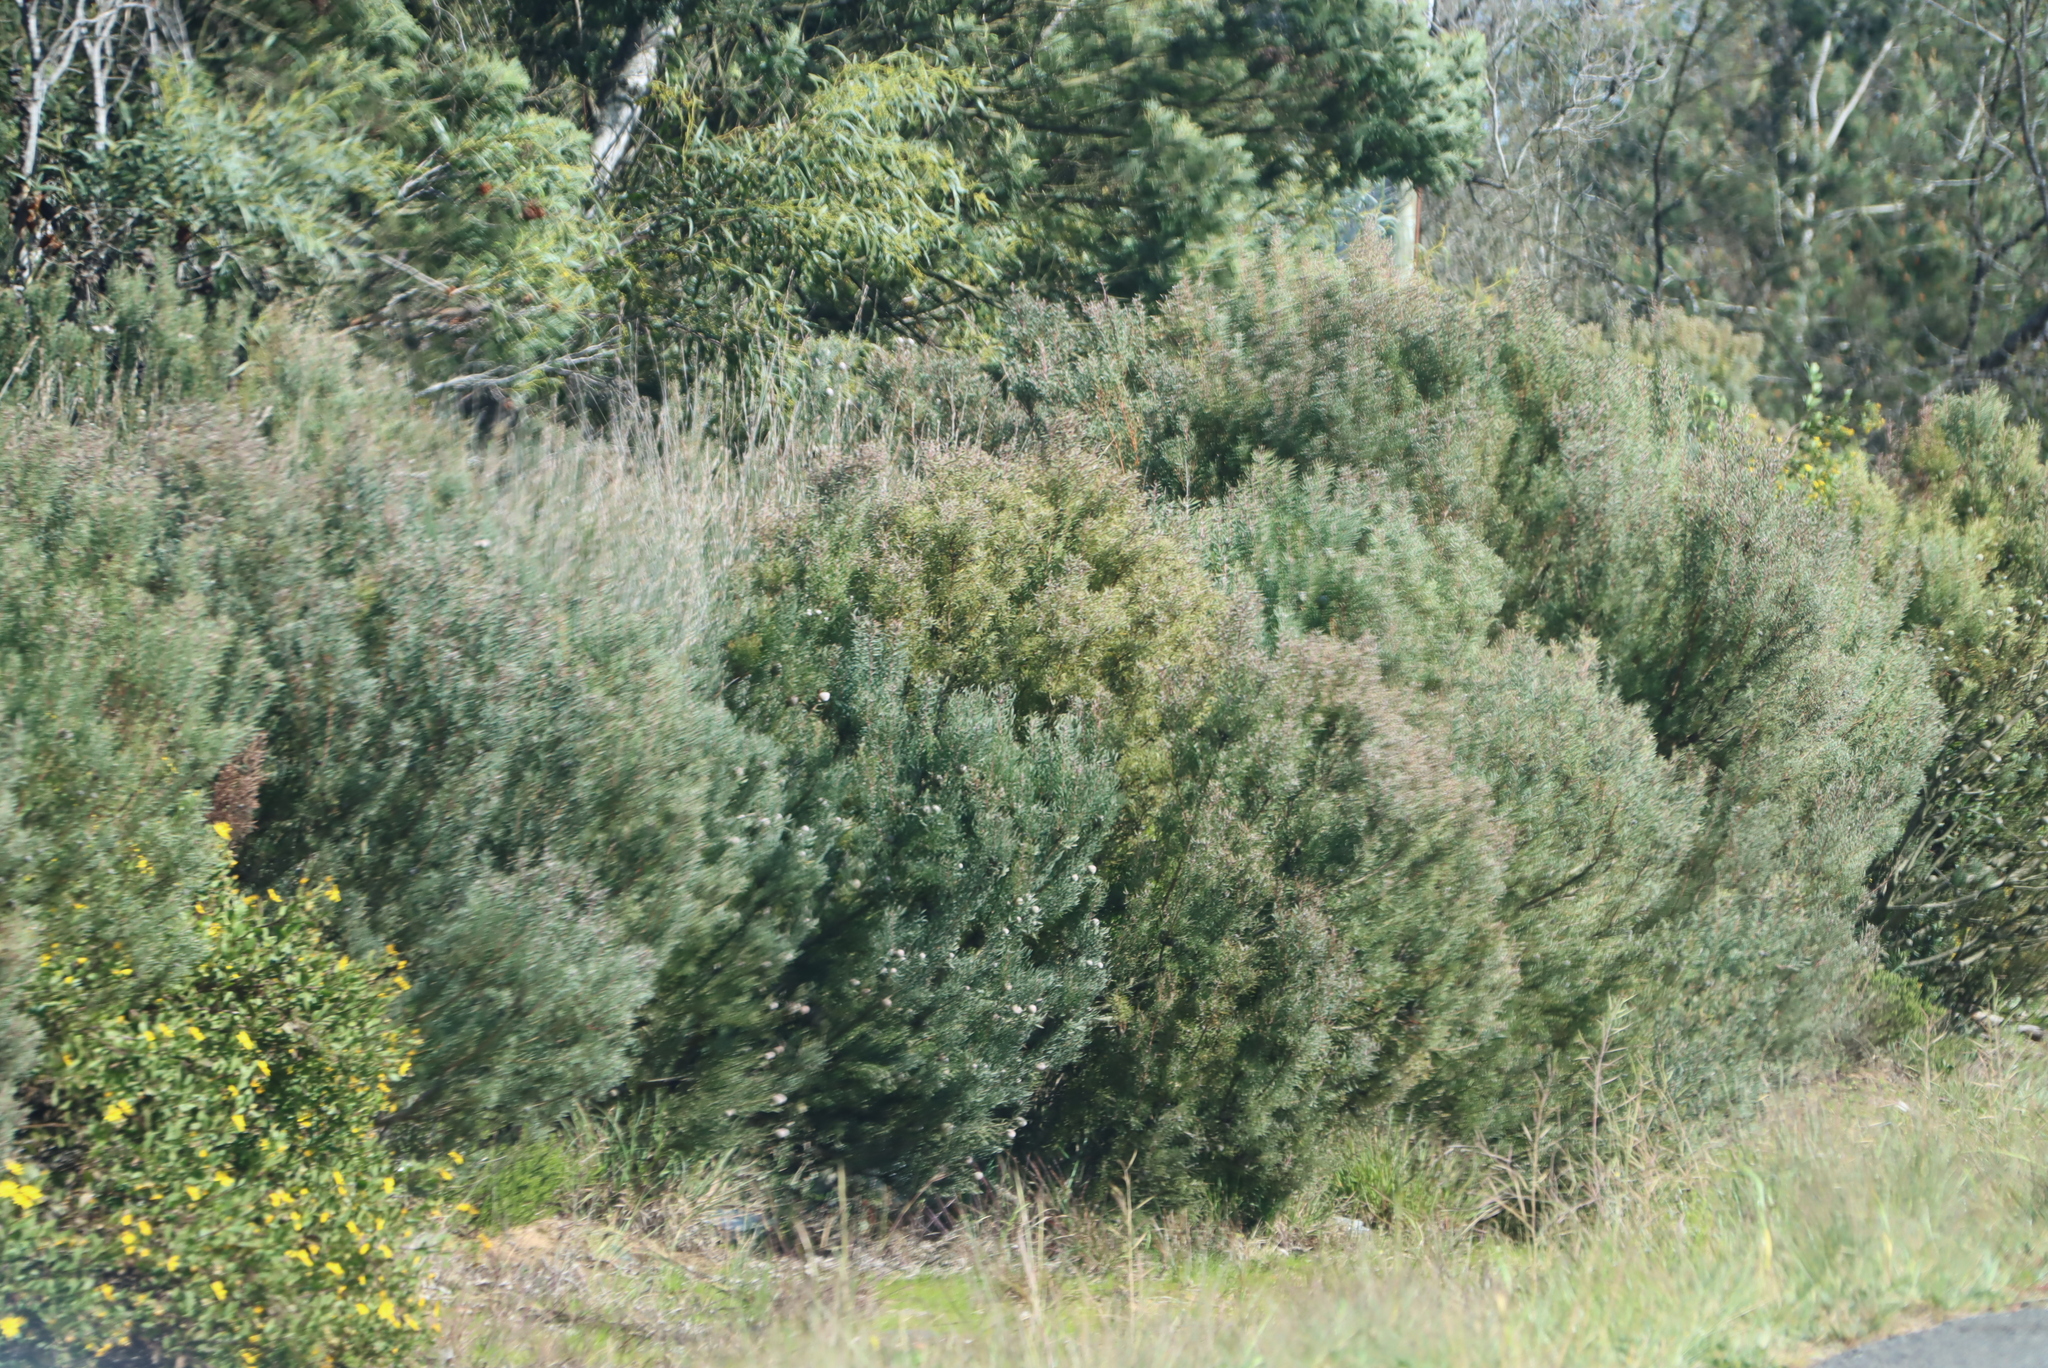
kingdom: Plantae
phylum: Tracheophyta
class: Magnoliopsida
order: Proteales
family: Proteaceae
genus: Leucadendron
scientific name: Leucadendron galpinii
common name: Hairless conebush
